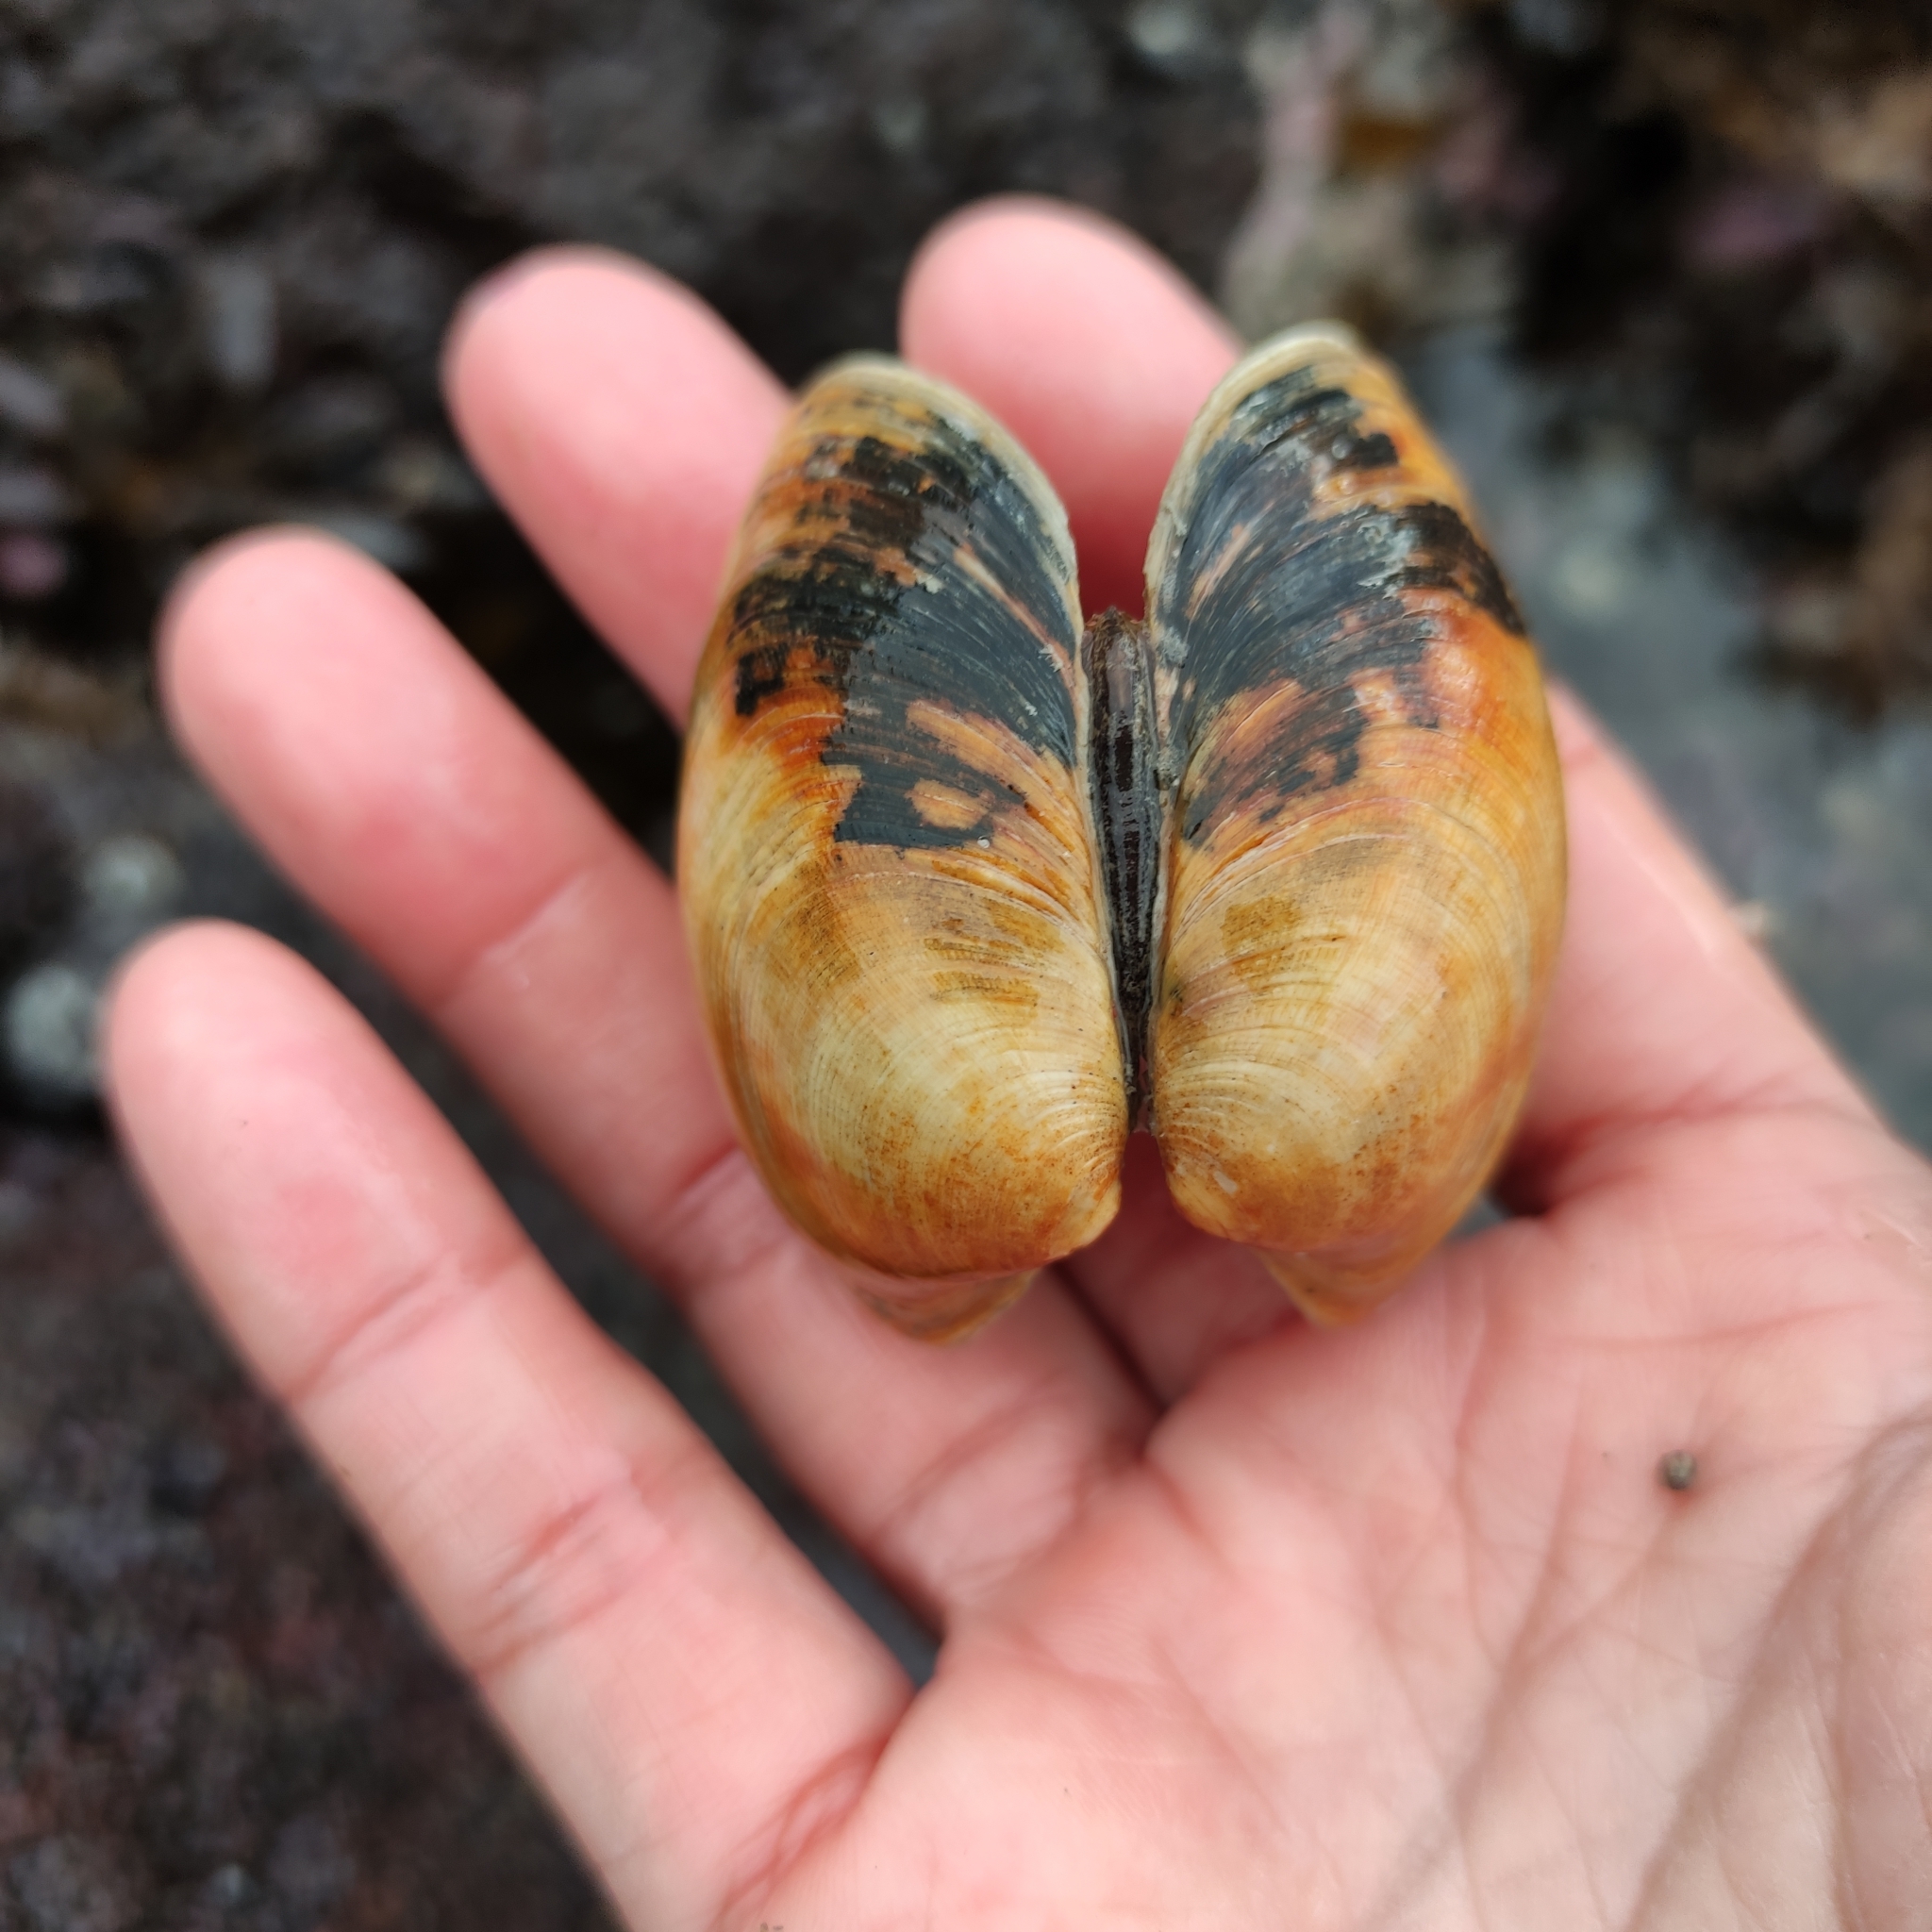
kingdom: Animalia
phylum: Mollusca
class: Bivalvia
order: Venerida
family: Veneridae
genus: Venerupis
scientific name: Venerupis largillierti
